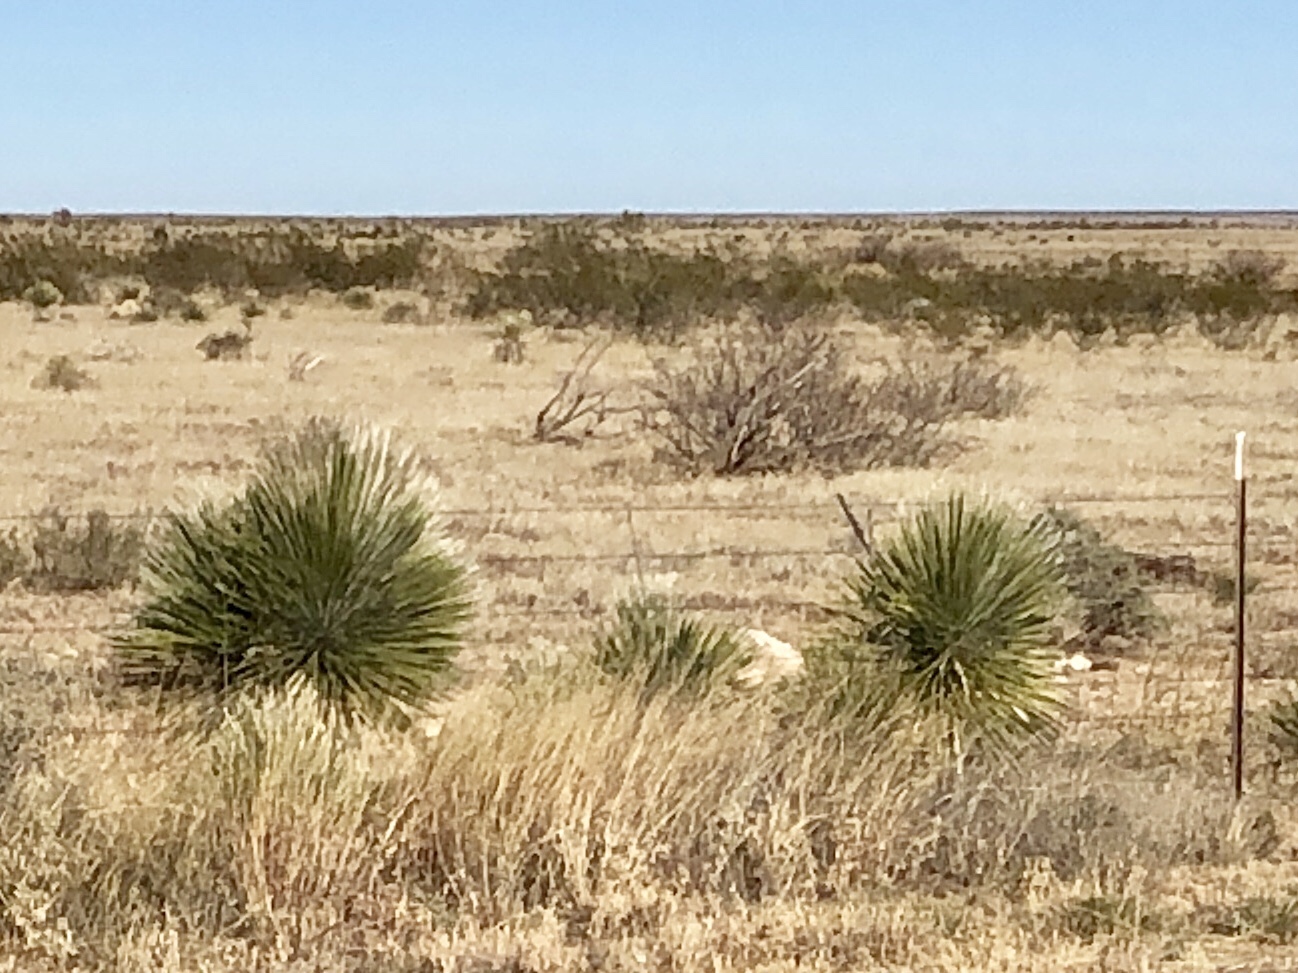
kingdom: Plantae
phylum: Tracheophyta
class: Liliopsida
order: Asparagales
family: Asparagaceae
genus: Yucca
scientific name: Yucca elata
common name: Palmella
